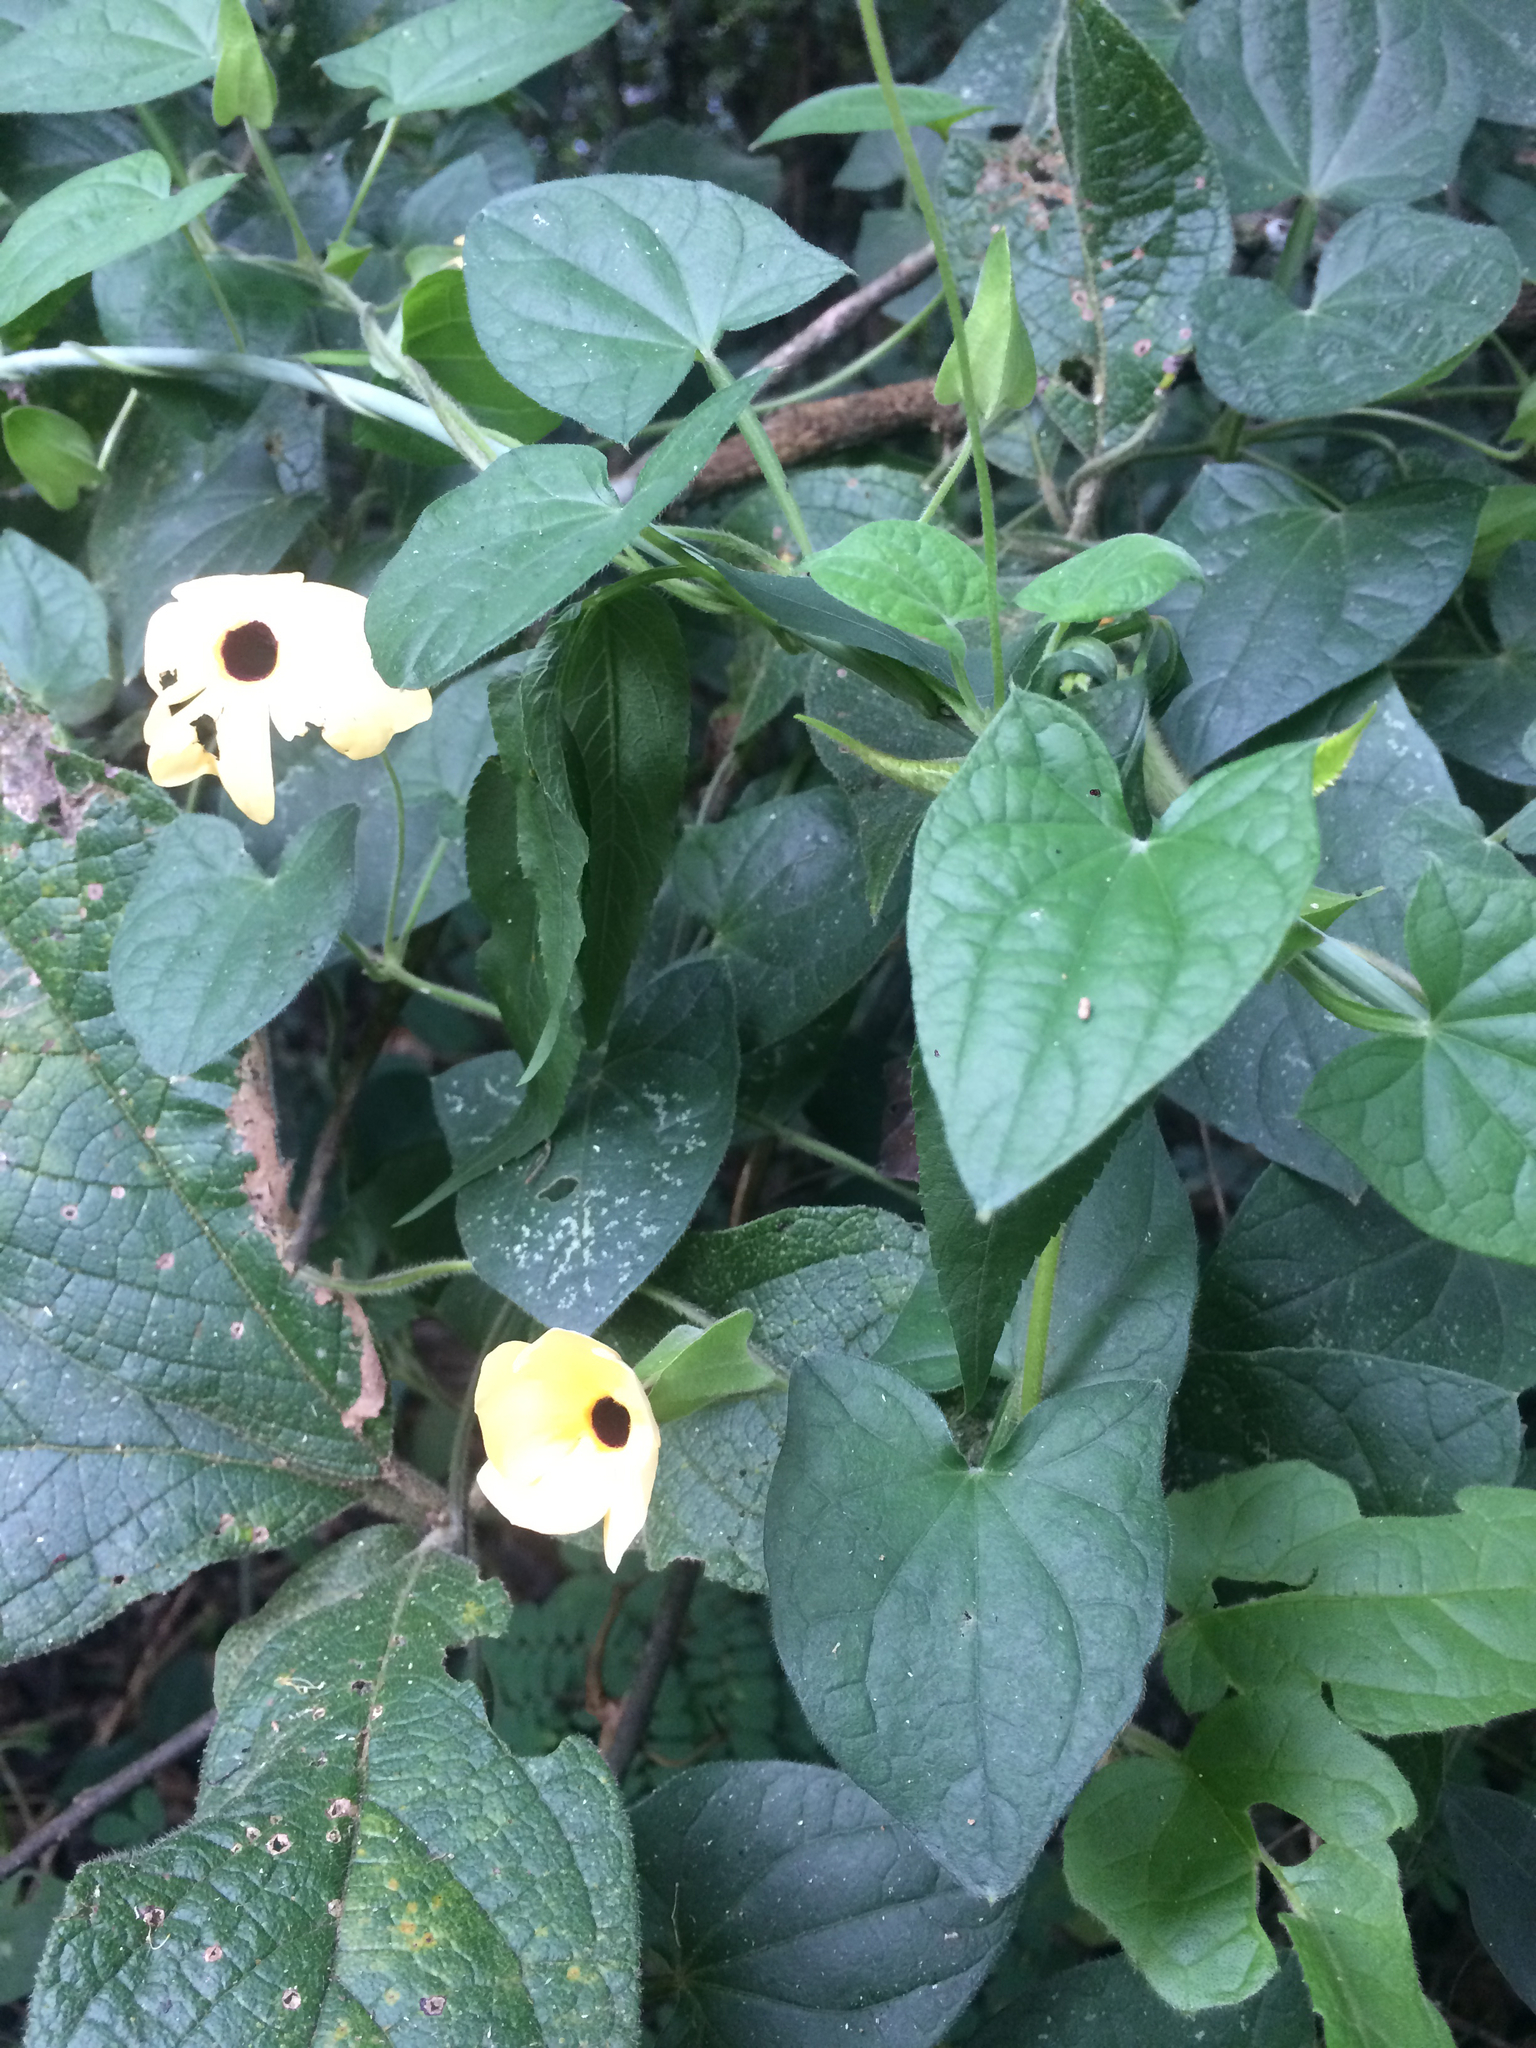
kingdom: Plantae
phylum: Tracheophyta
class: Magnoliopsida
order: Lamiales
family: Acanthaceae
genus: Thunbergia
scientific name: Thunbergia alata
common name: Blackeyed susan vine
